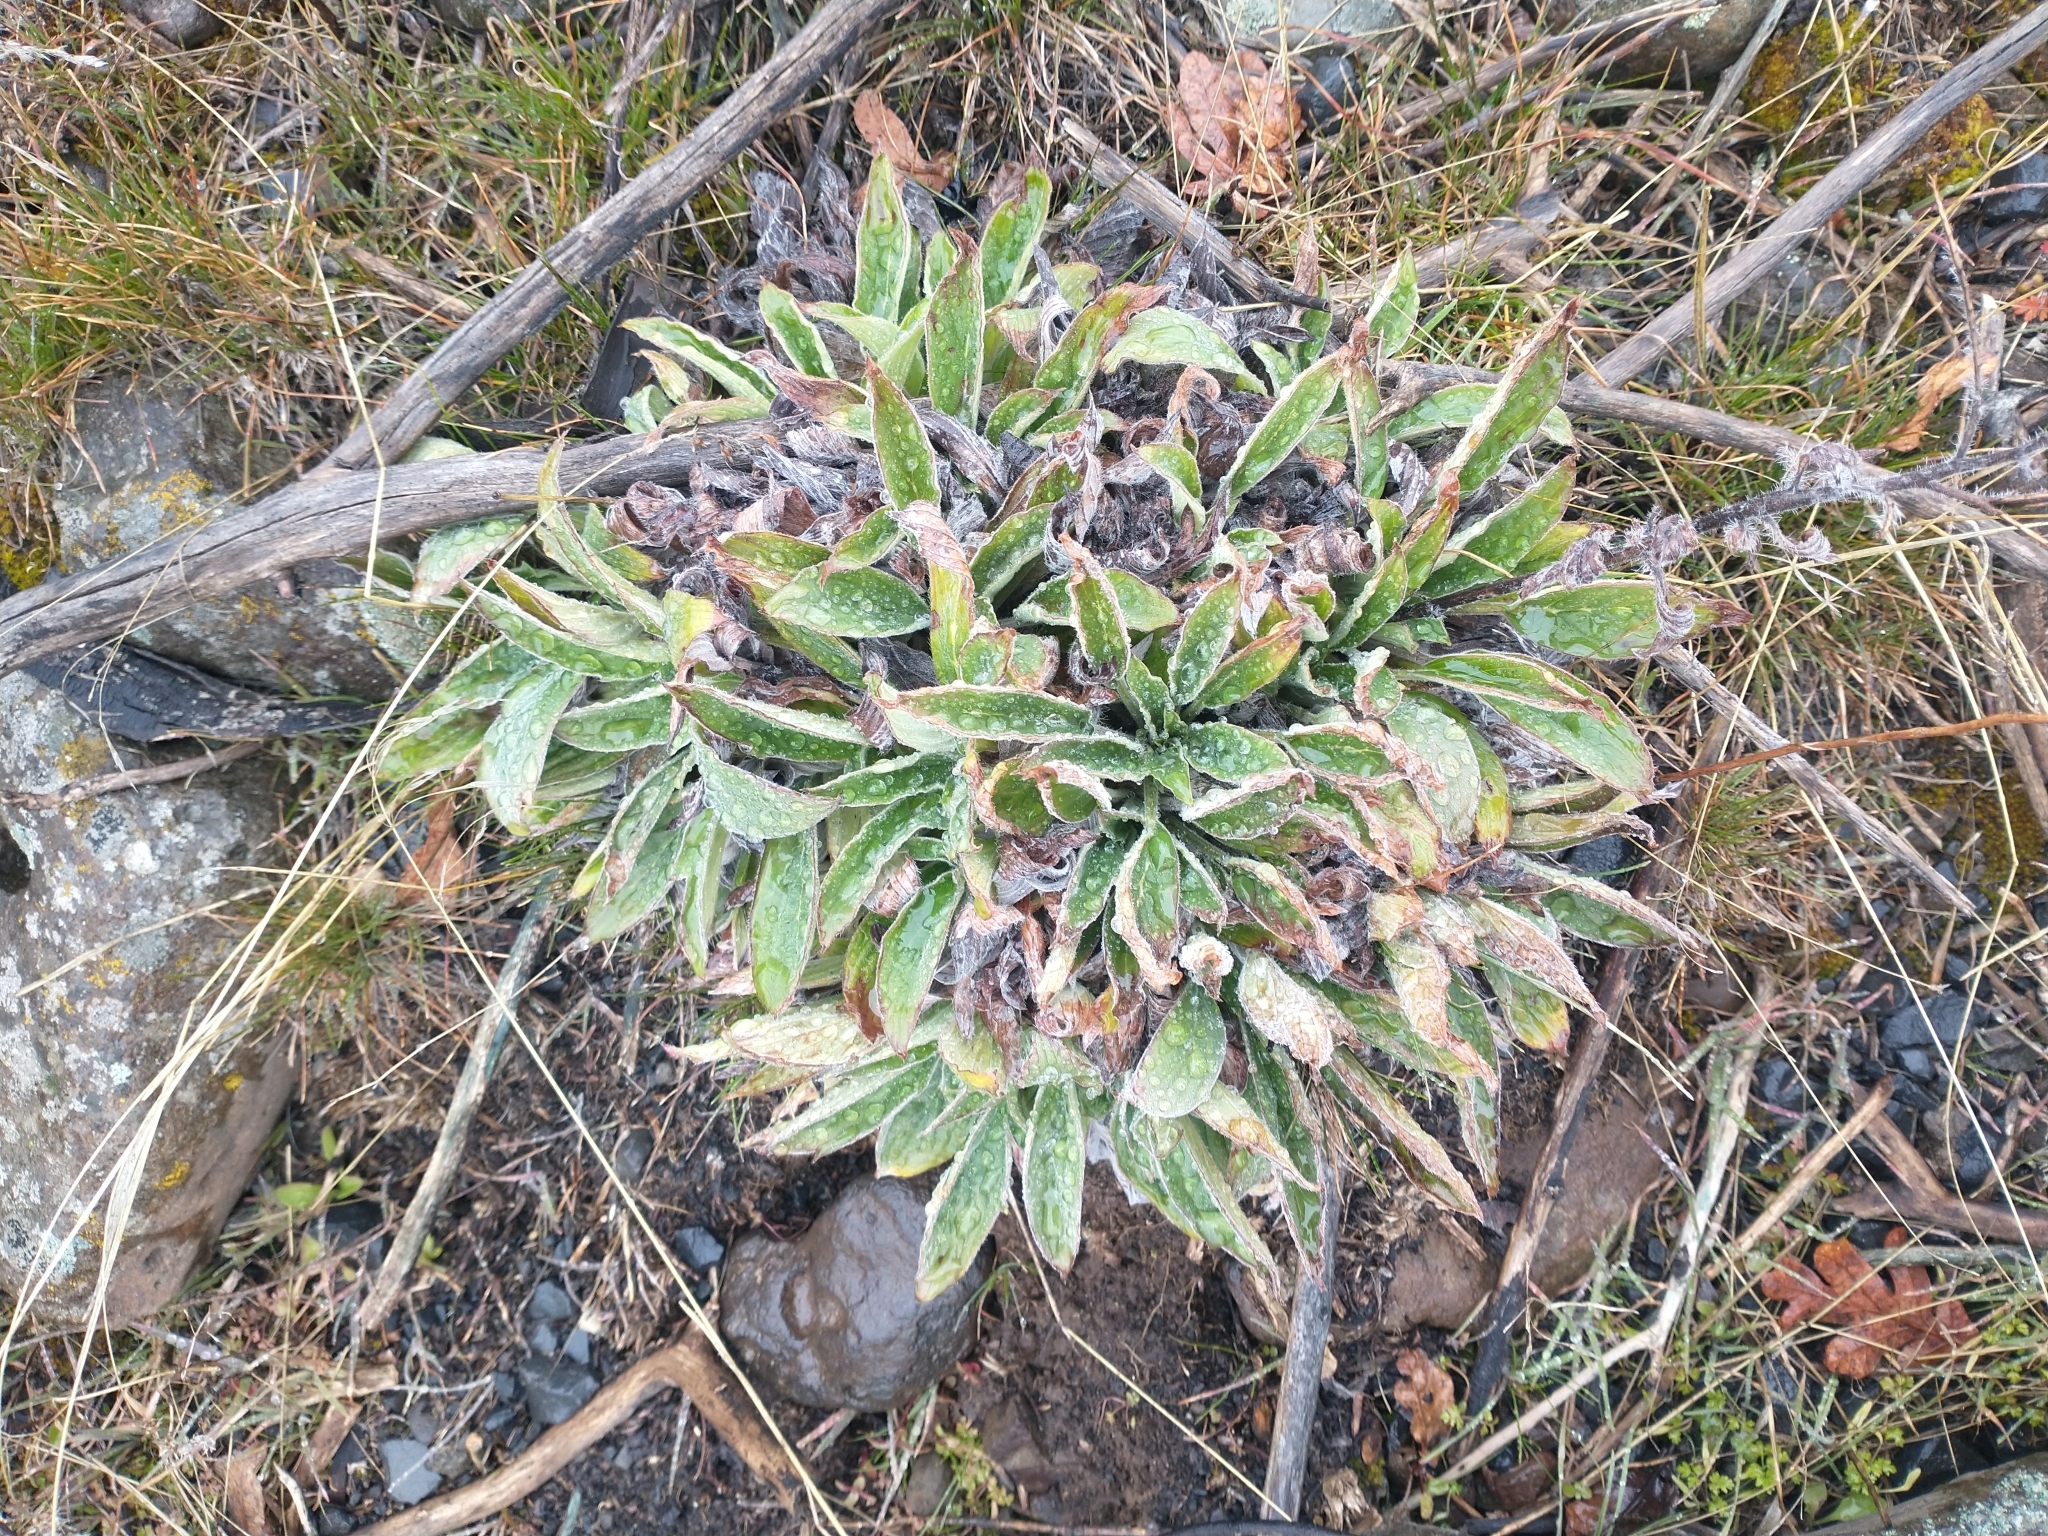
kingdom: Plantae
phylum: Tracheophyta
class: Magnoliopsida
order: Boraginales
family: Hydrophyllaceae
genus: Phacelia
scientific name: Phacelia hastata
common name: Silver-leaved phacelia
